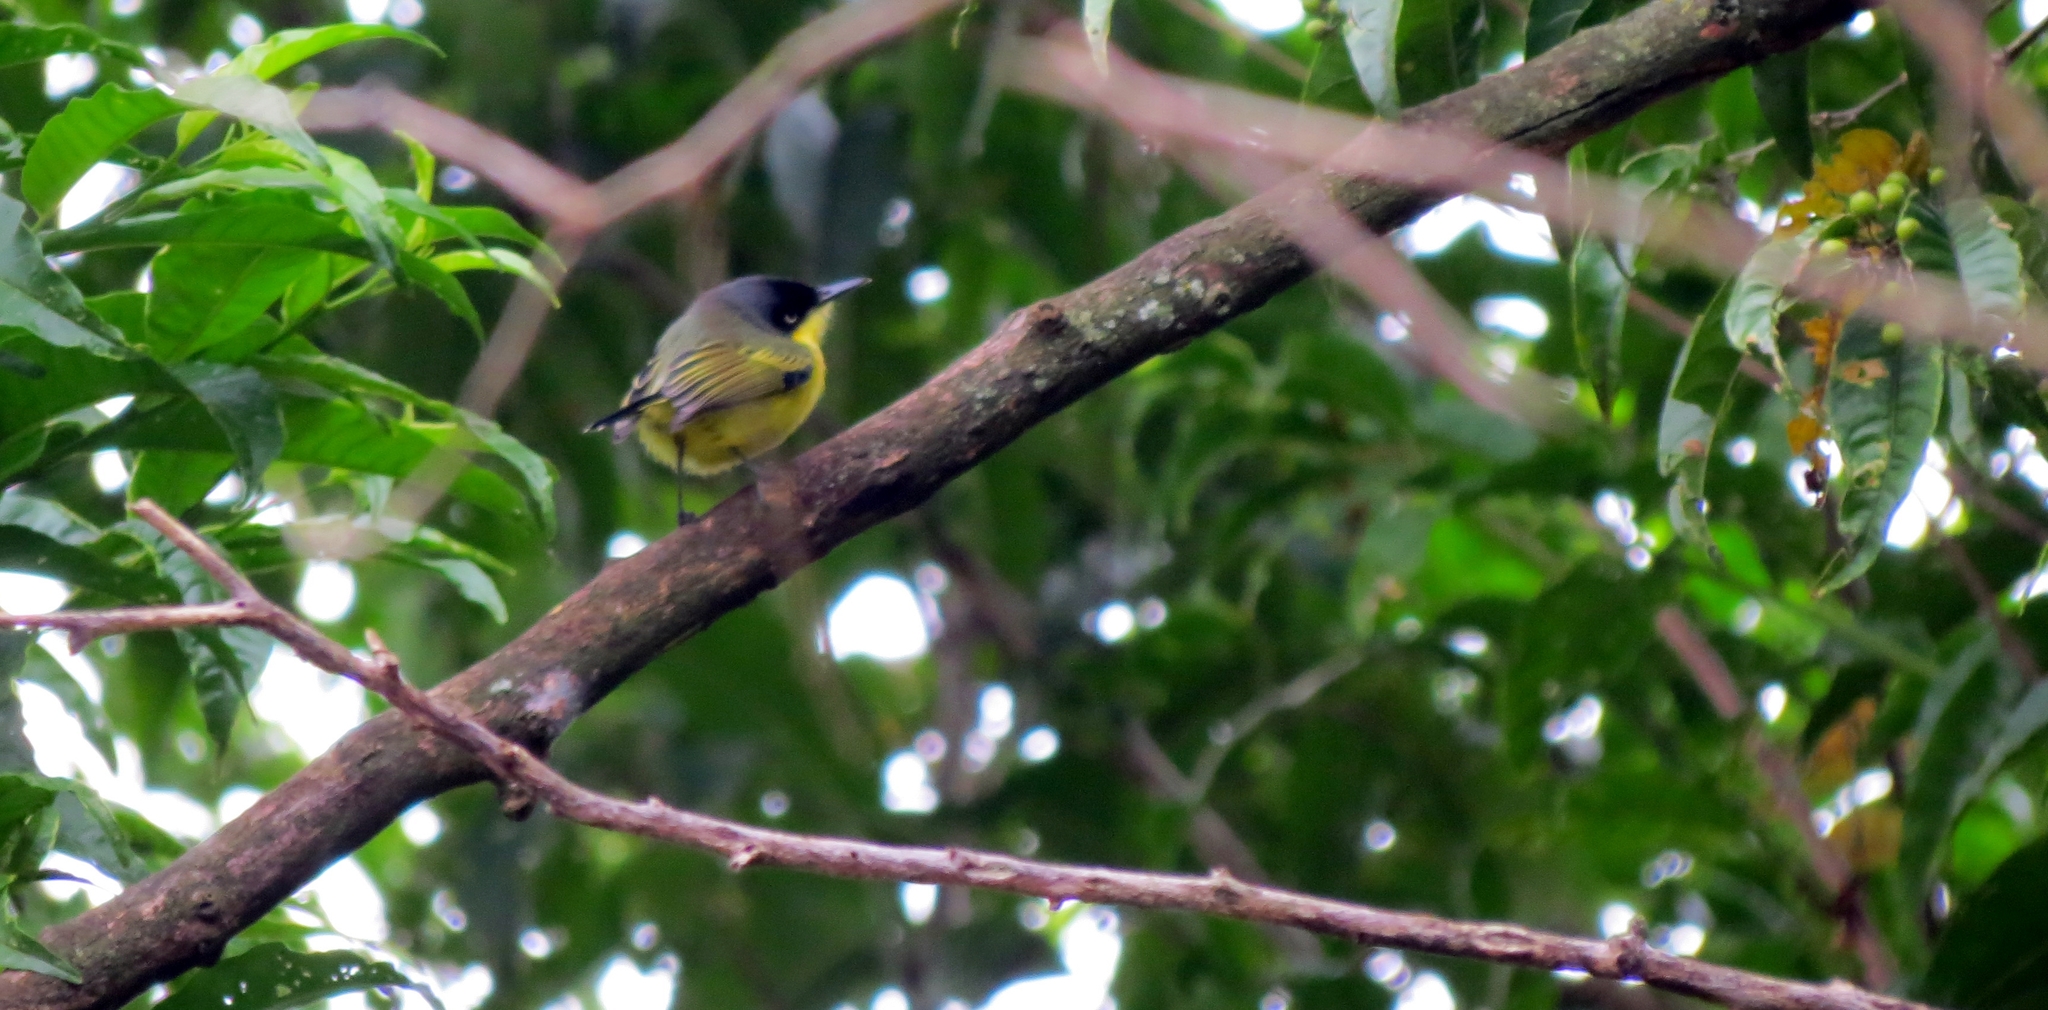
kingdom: Animalia
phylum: Chordata
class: Aves
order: Passeriformes
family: Tyrannidae
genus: Todirostrum
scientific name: Todirostrum cinereum
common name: Common tody-flycatcher
